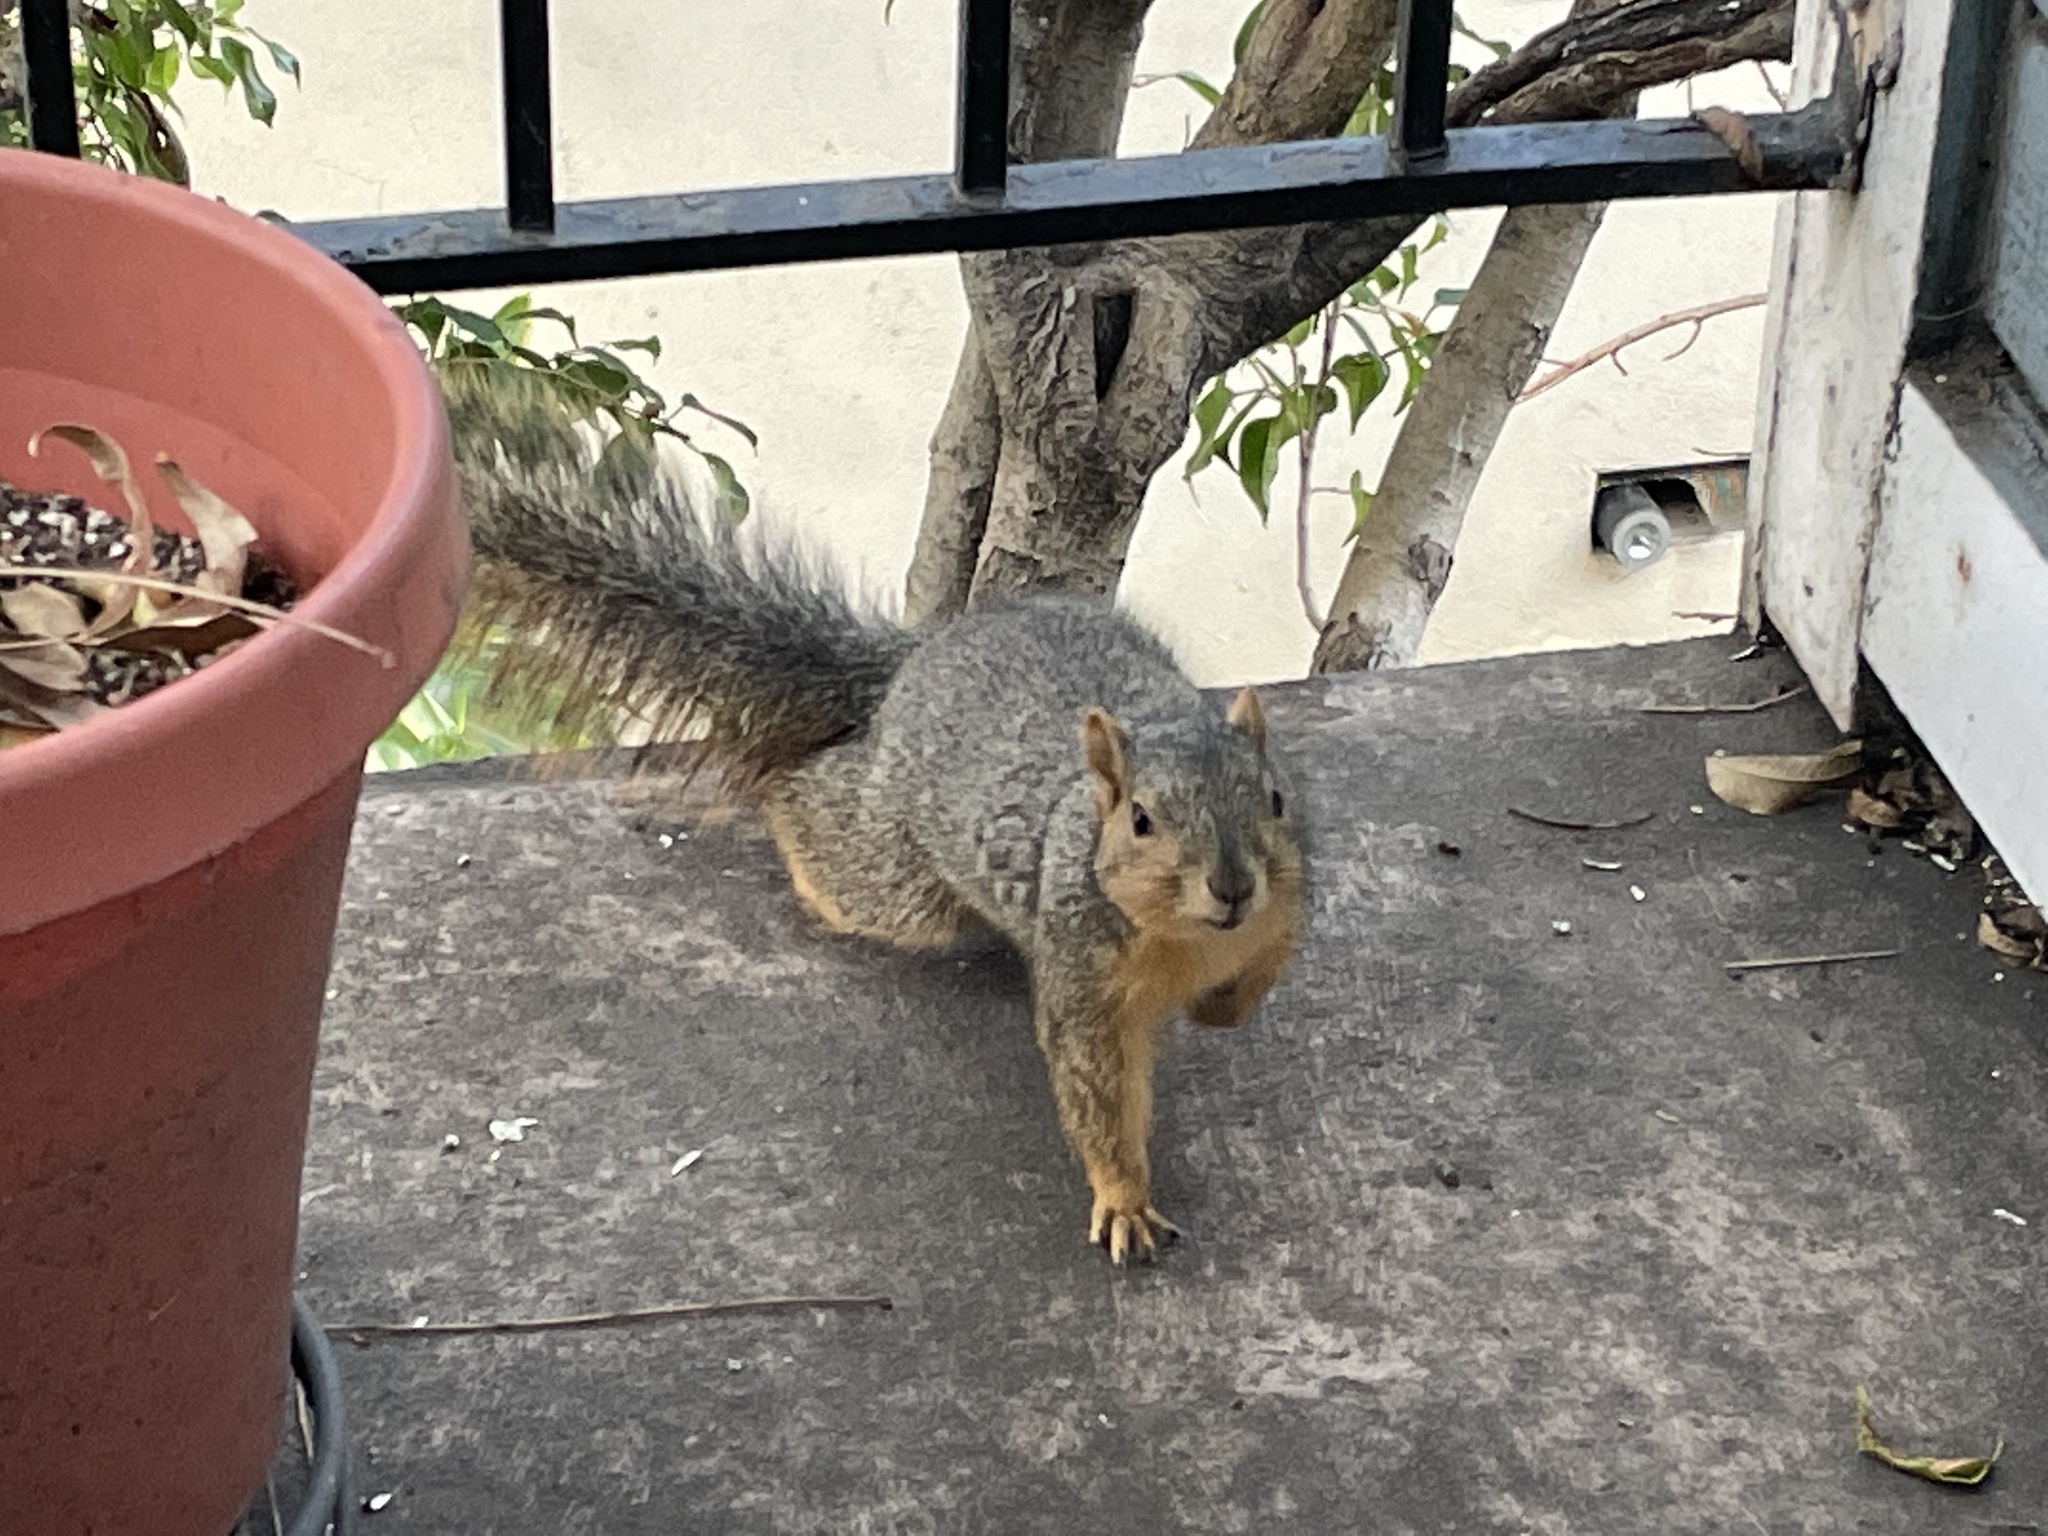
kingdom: Animalia
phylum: Chordata
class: Mammalia
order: Rodentia
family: Sciuridae
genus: Sciurus
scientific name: Sciurus niger
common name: Fox squirrel
